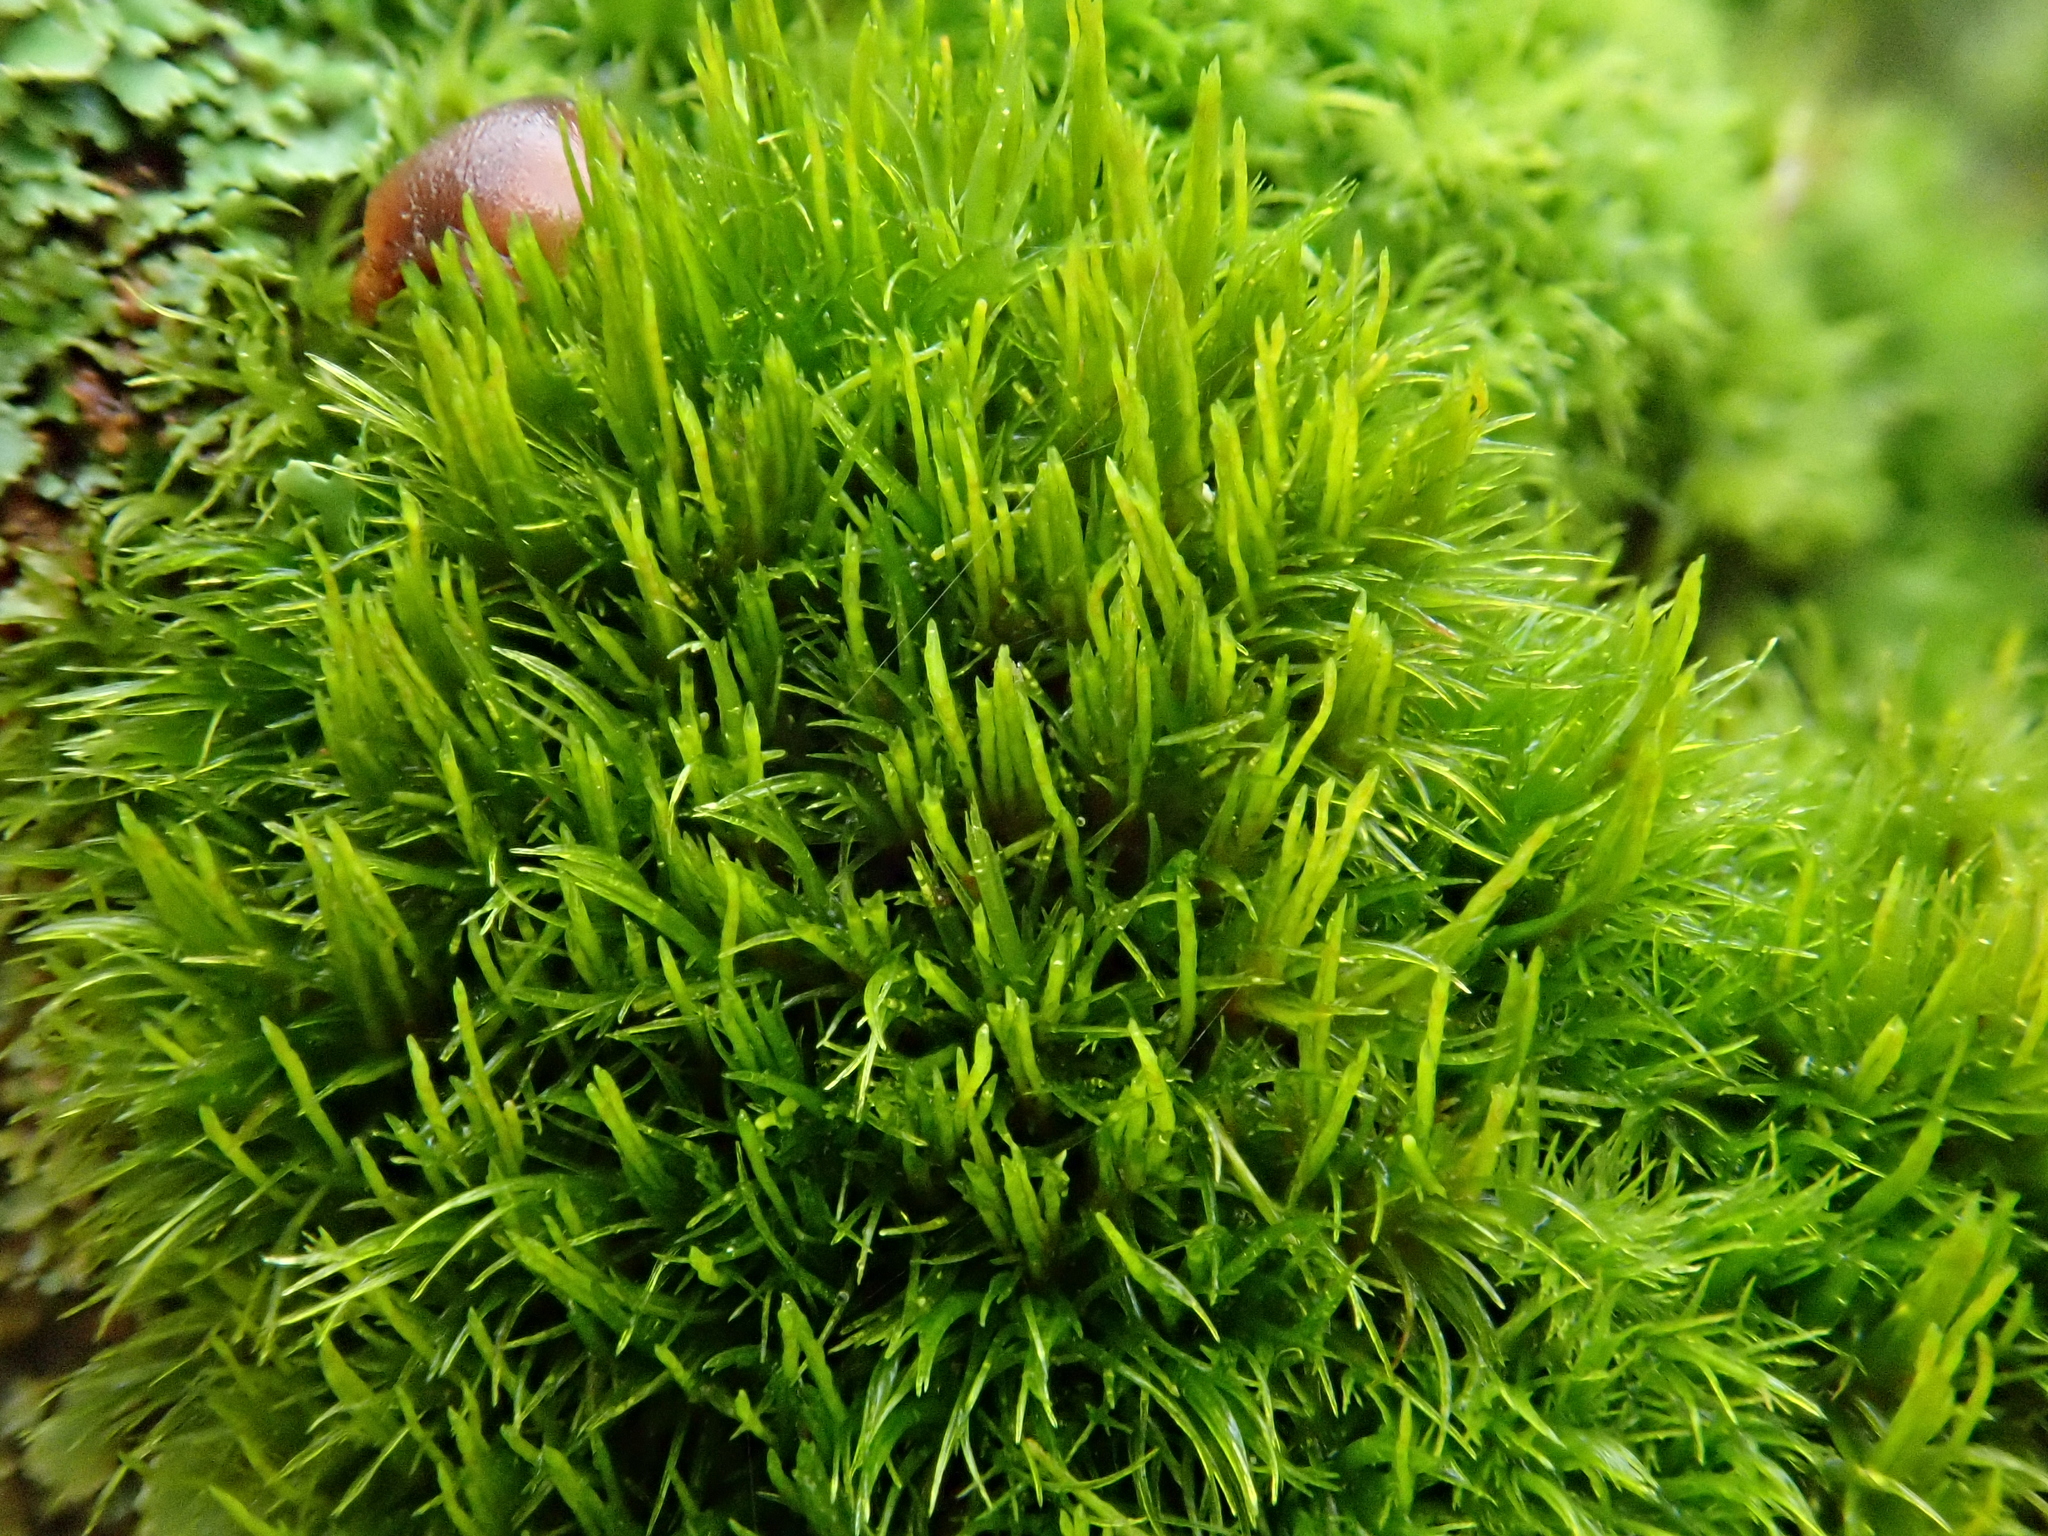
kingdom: Plantae
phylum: Bryophyta
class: Bryopsida
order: Dicranales
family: Dicranaceae
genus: Orthodicranum
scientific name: Orthodicranum flagellare
